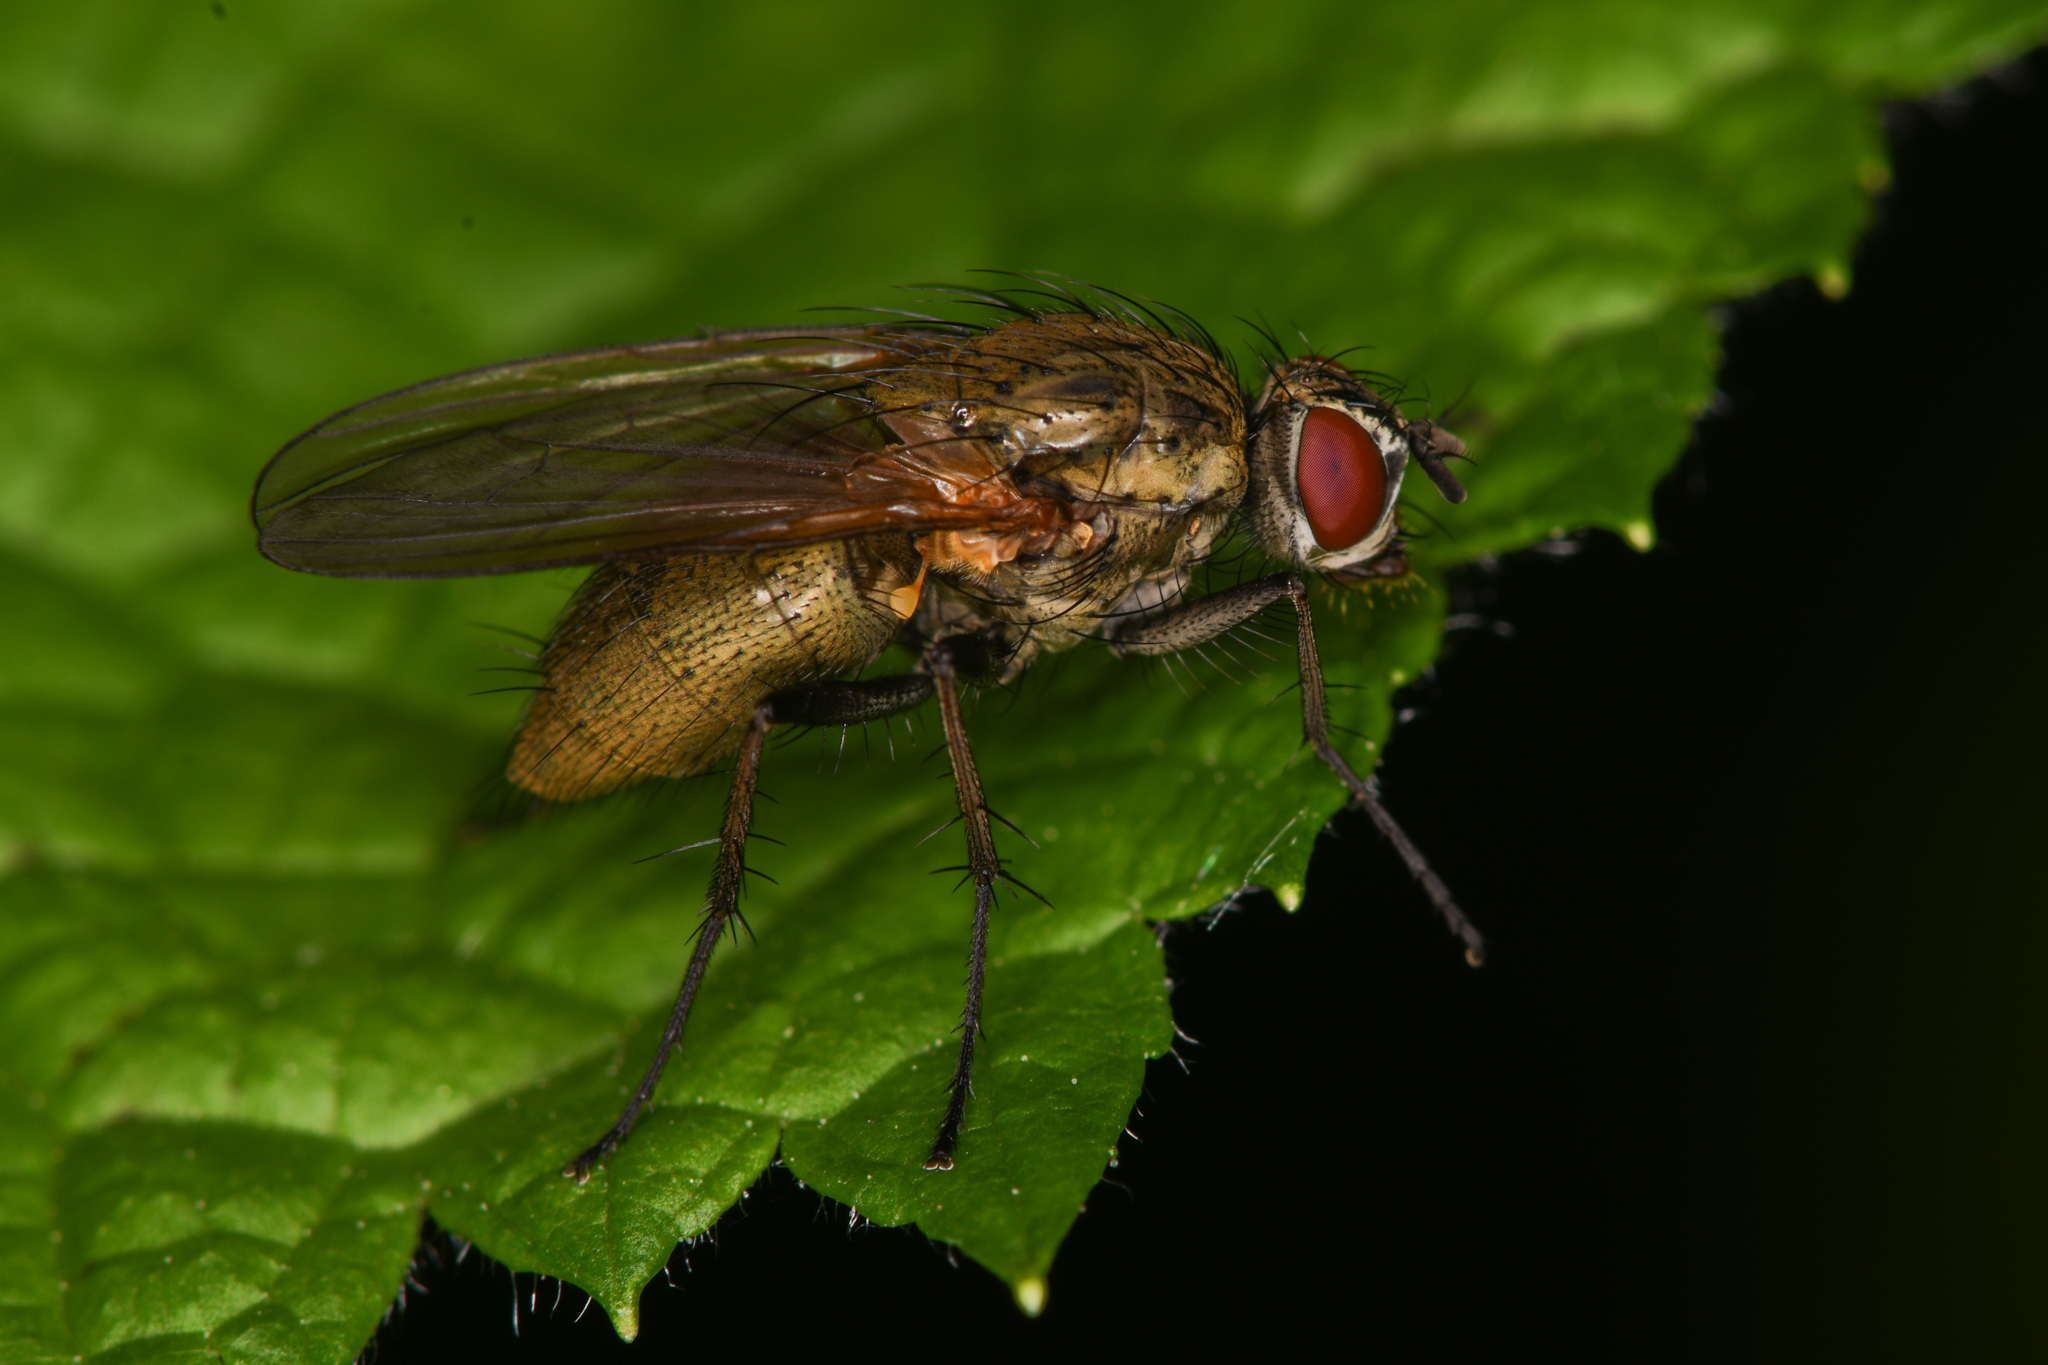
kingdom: Animalia
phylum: Arthropoda
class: Insecta
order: Diptera
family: Anthomyiidae
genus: Hydrophoria
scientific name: Hydrophoria lancifer
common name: Root-maggot fly
